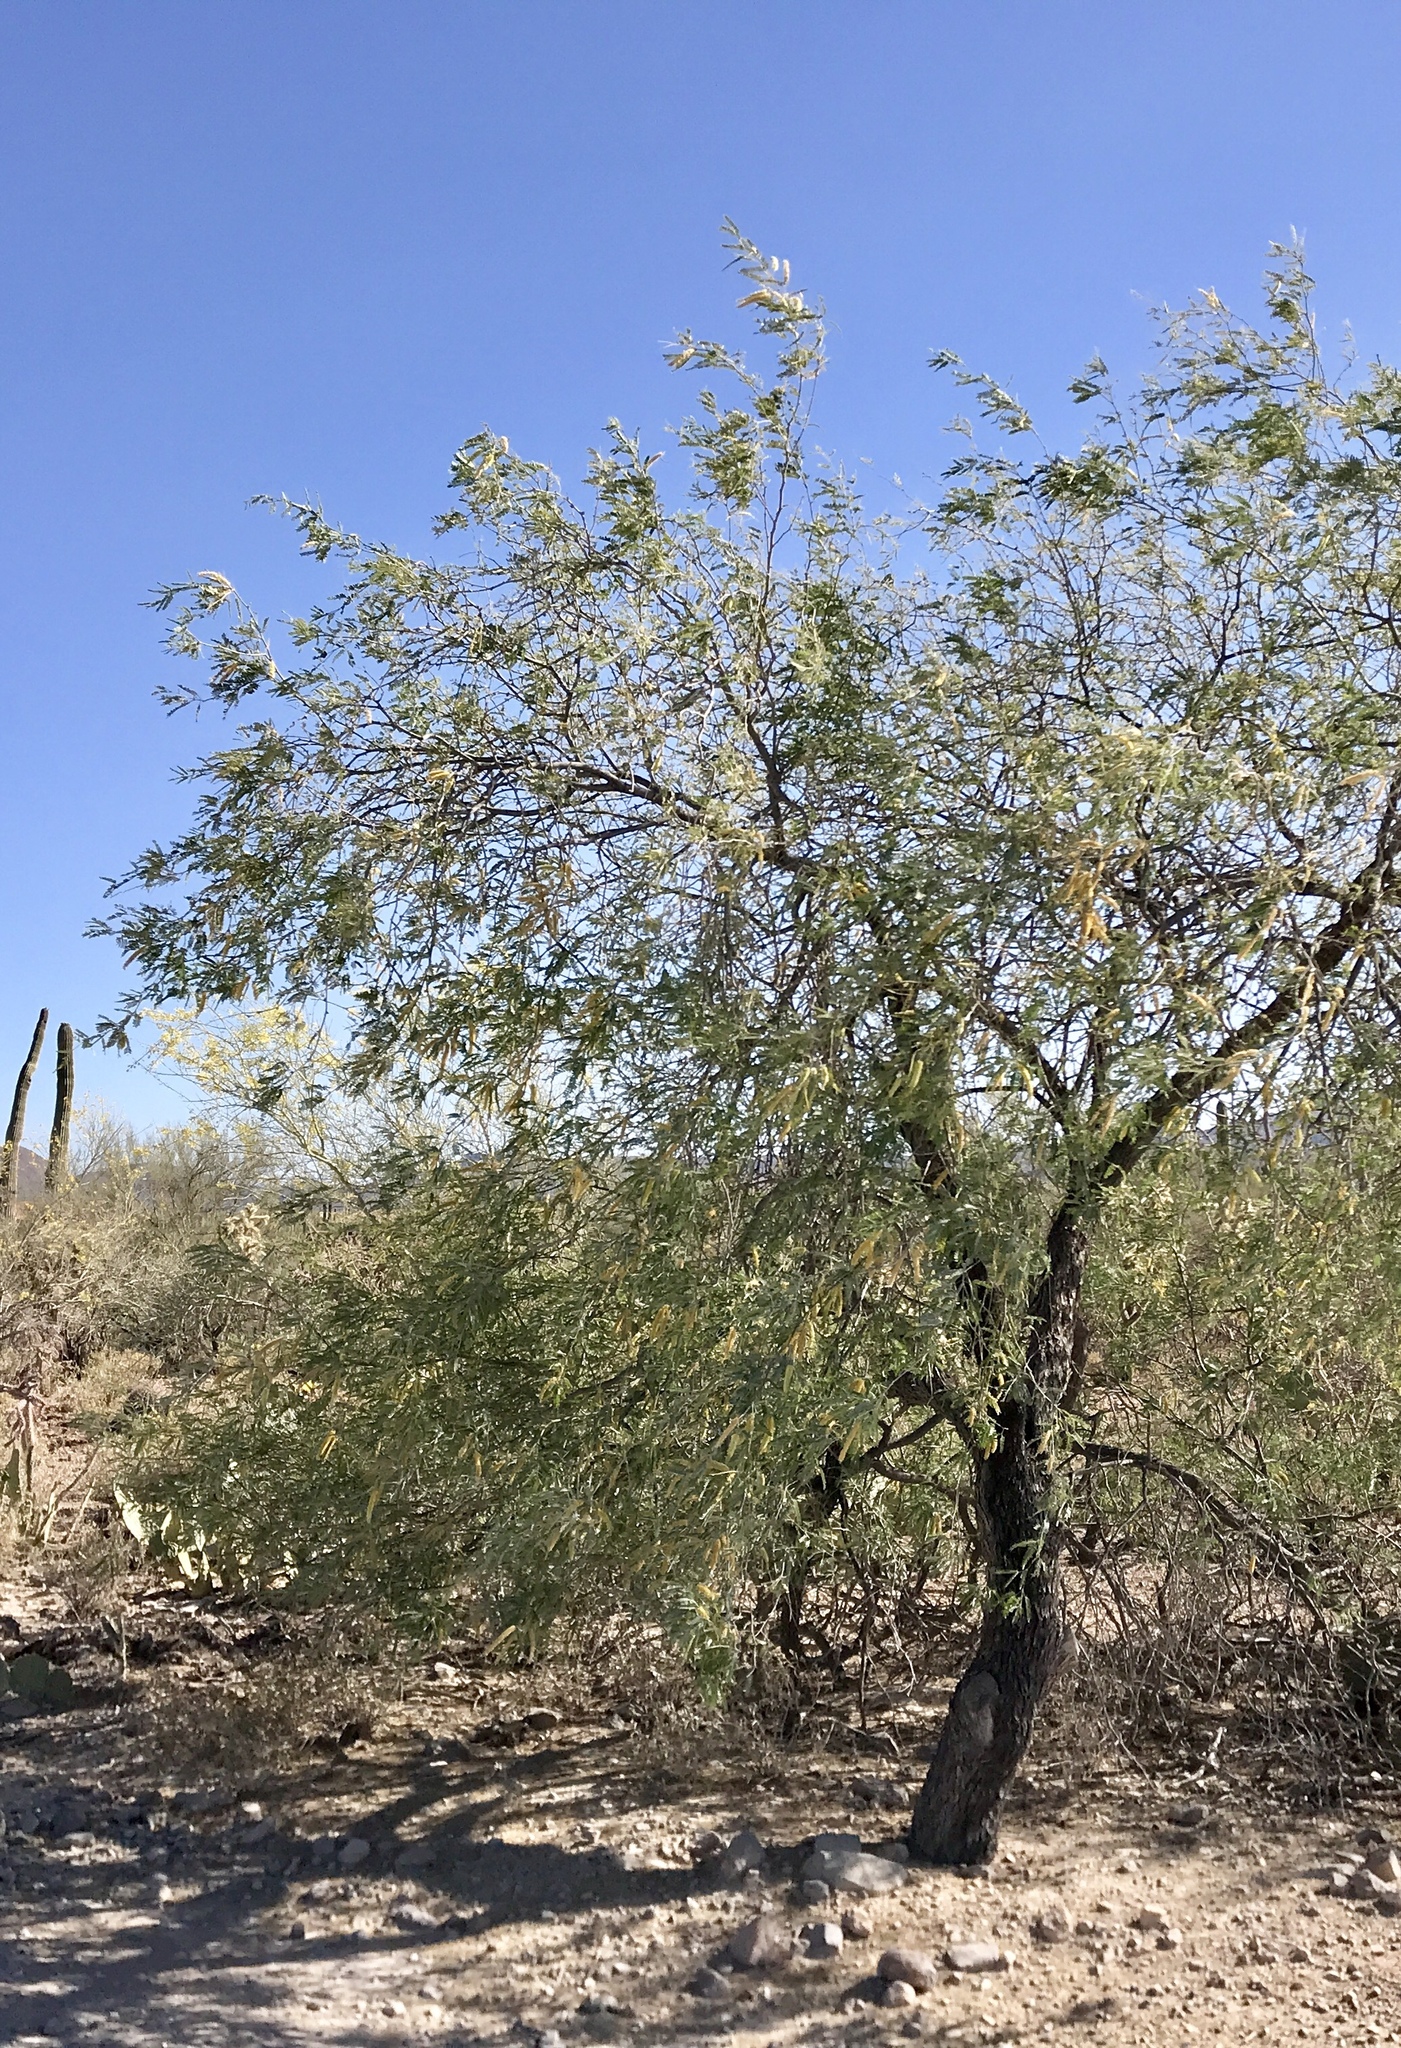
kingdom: Plantae
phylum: Tracheophyta
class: Magnoliopsida
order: Fabales
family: Fabaceae
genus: Prosopis
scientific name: Prosopis velutina
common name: Velvet mesquite
